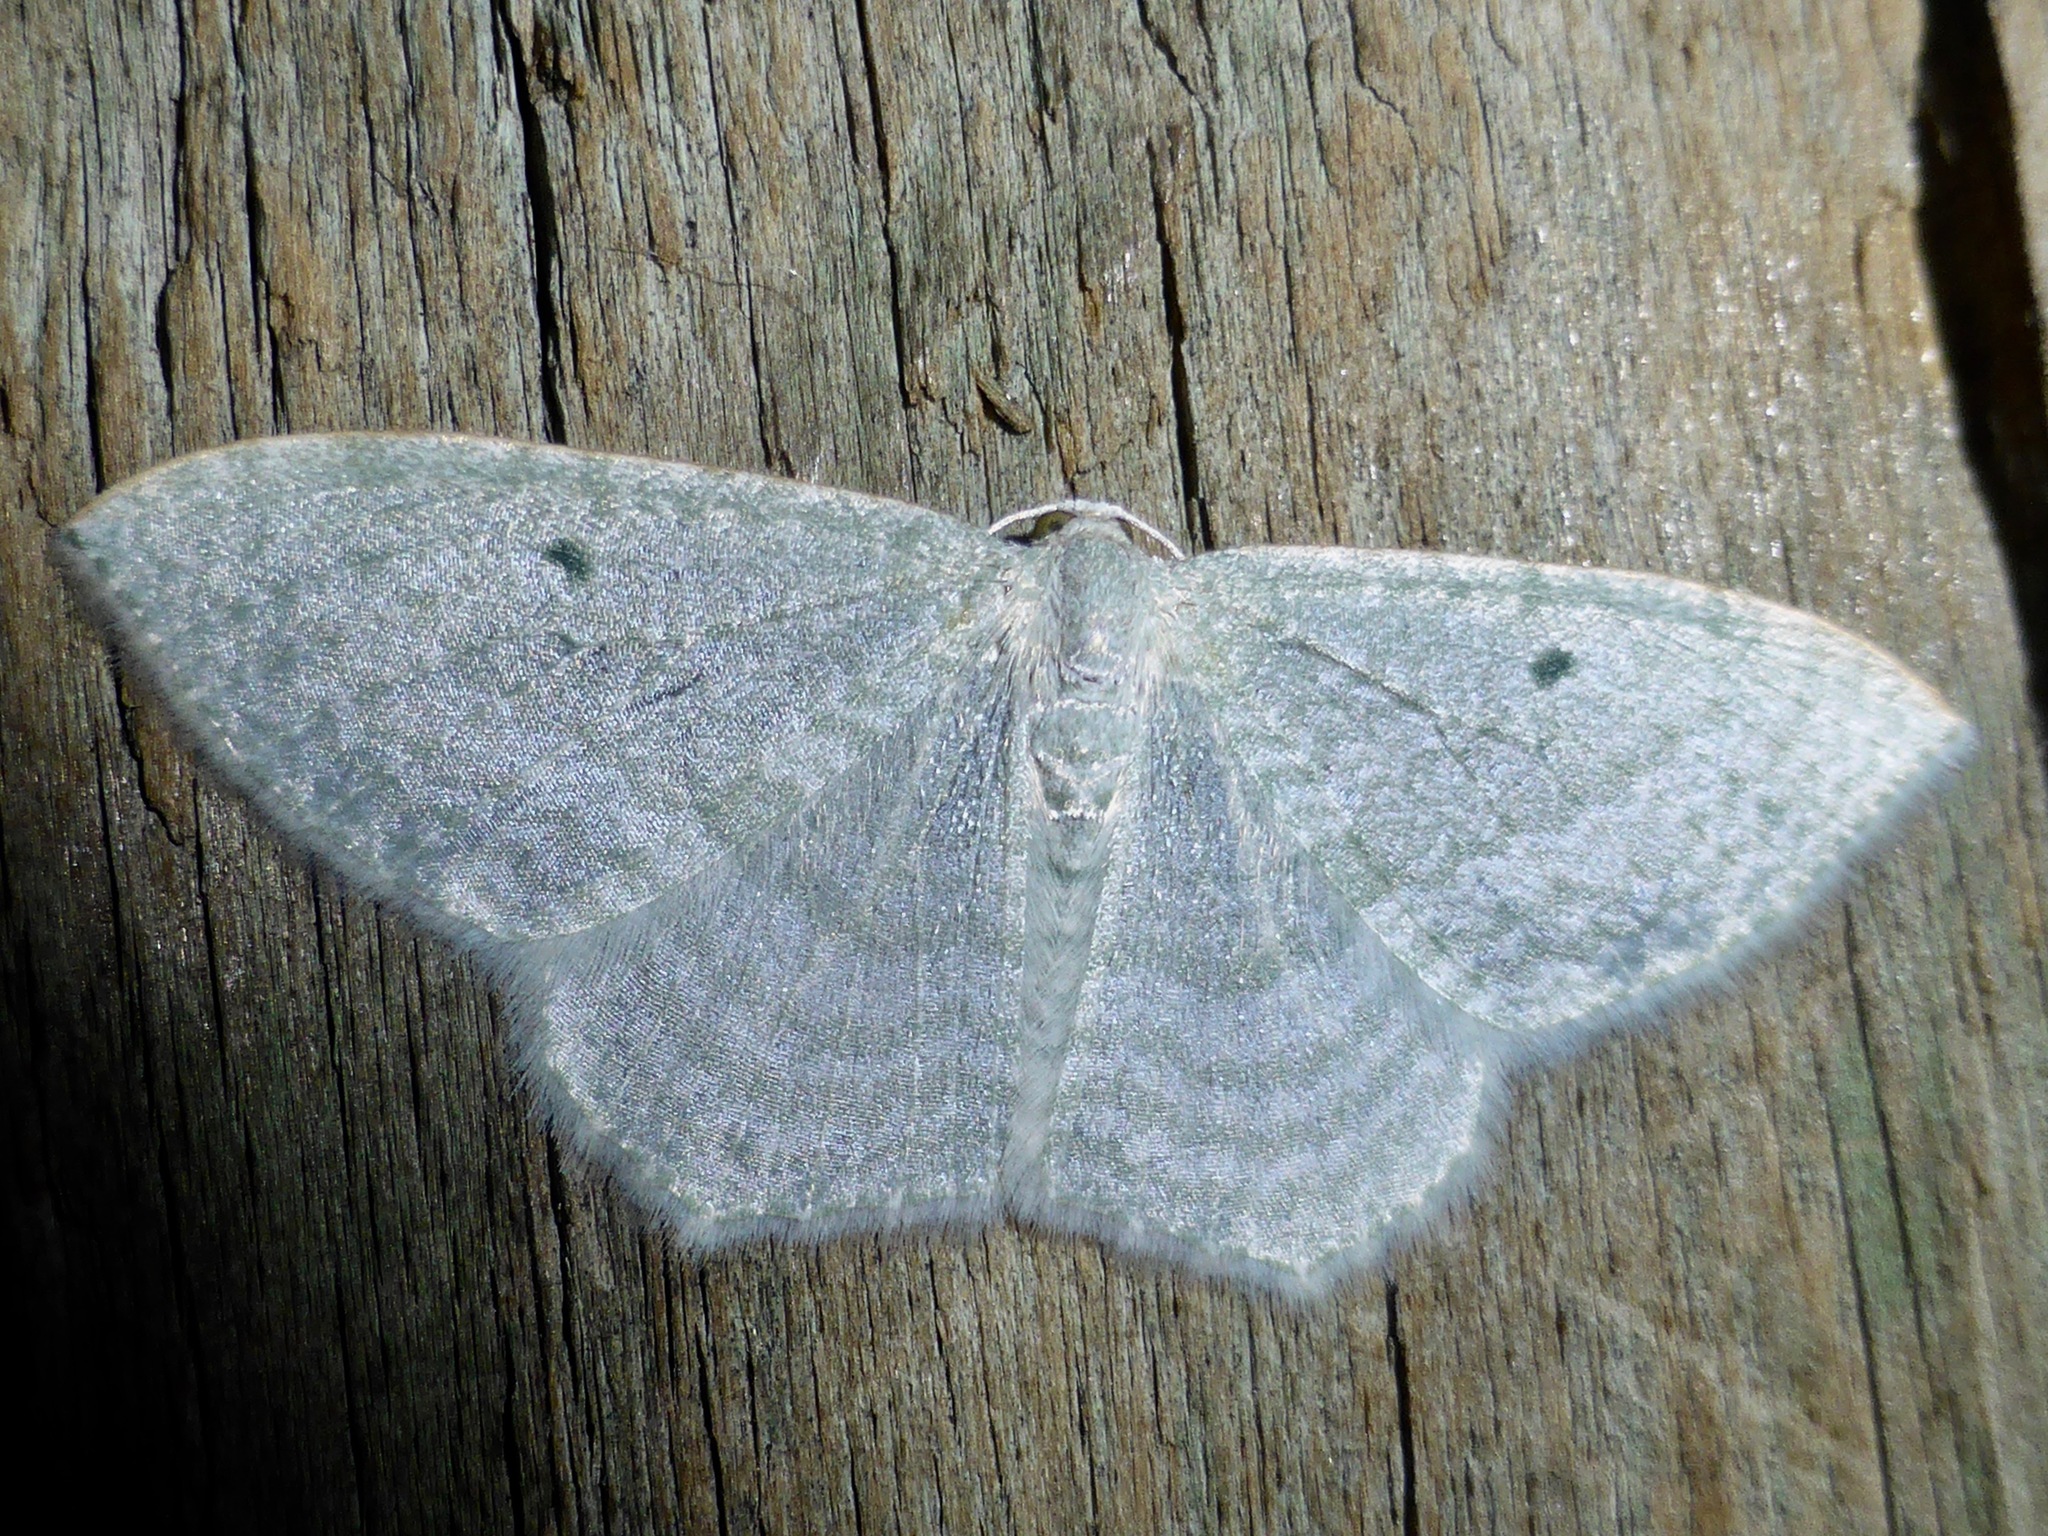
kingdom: Animalia
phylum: Arthropoda
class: Insecta
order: Lepidoptera
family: Geometridae
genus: Poecilasthena
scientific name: Poecilasthena pulchraria
